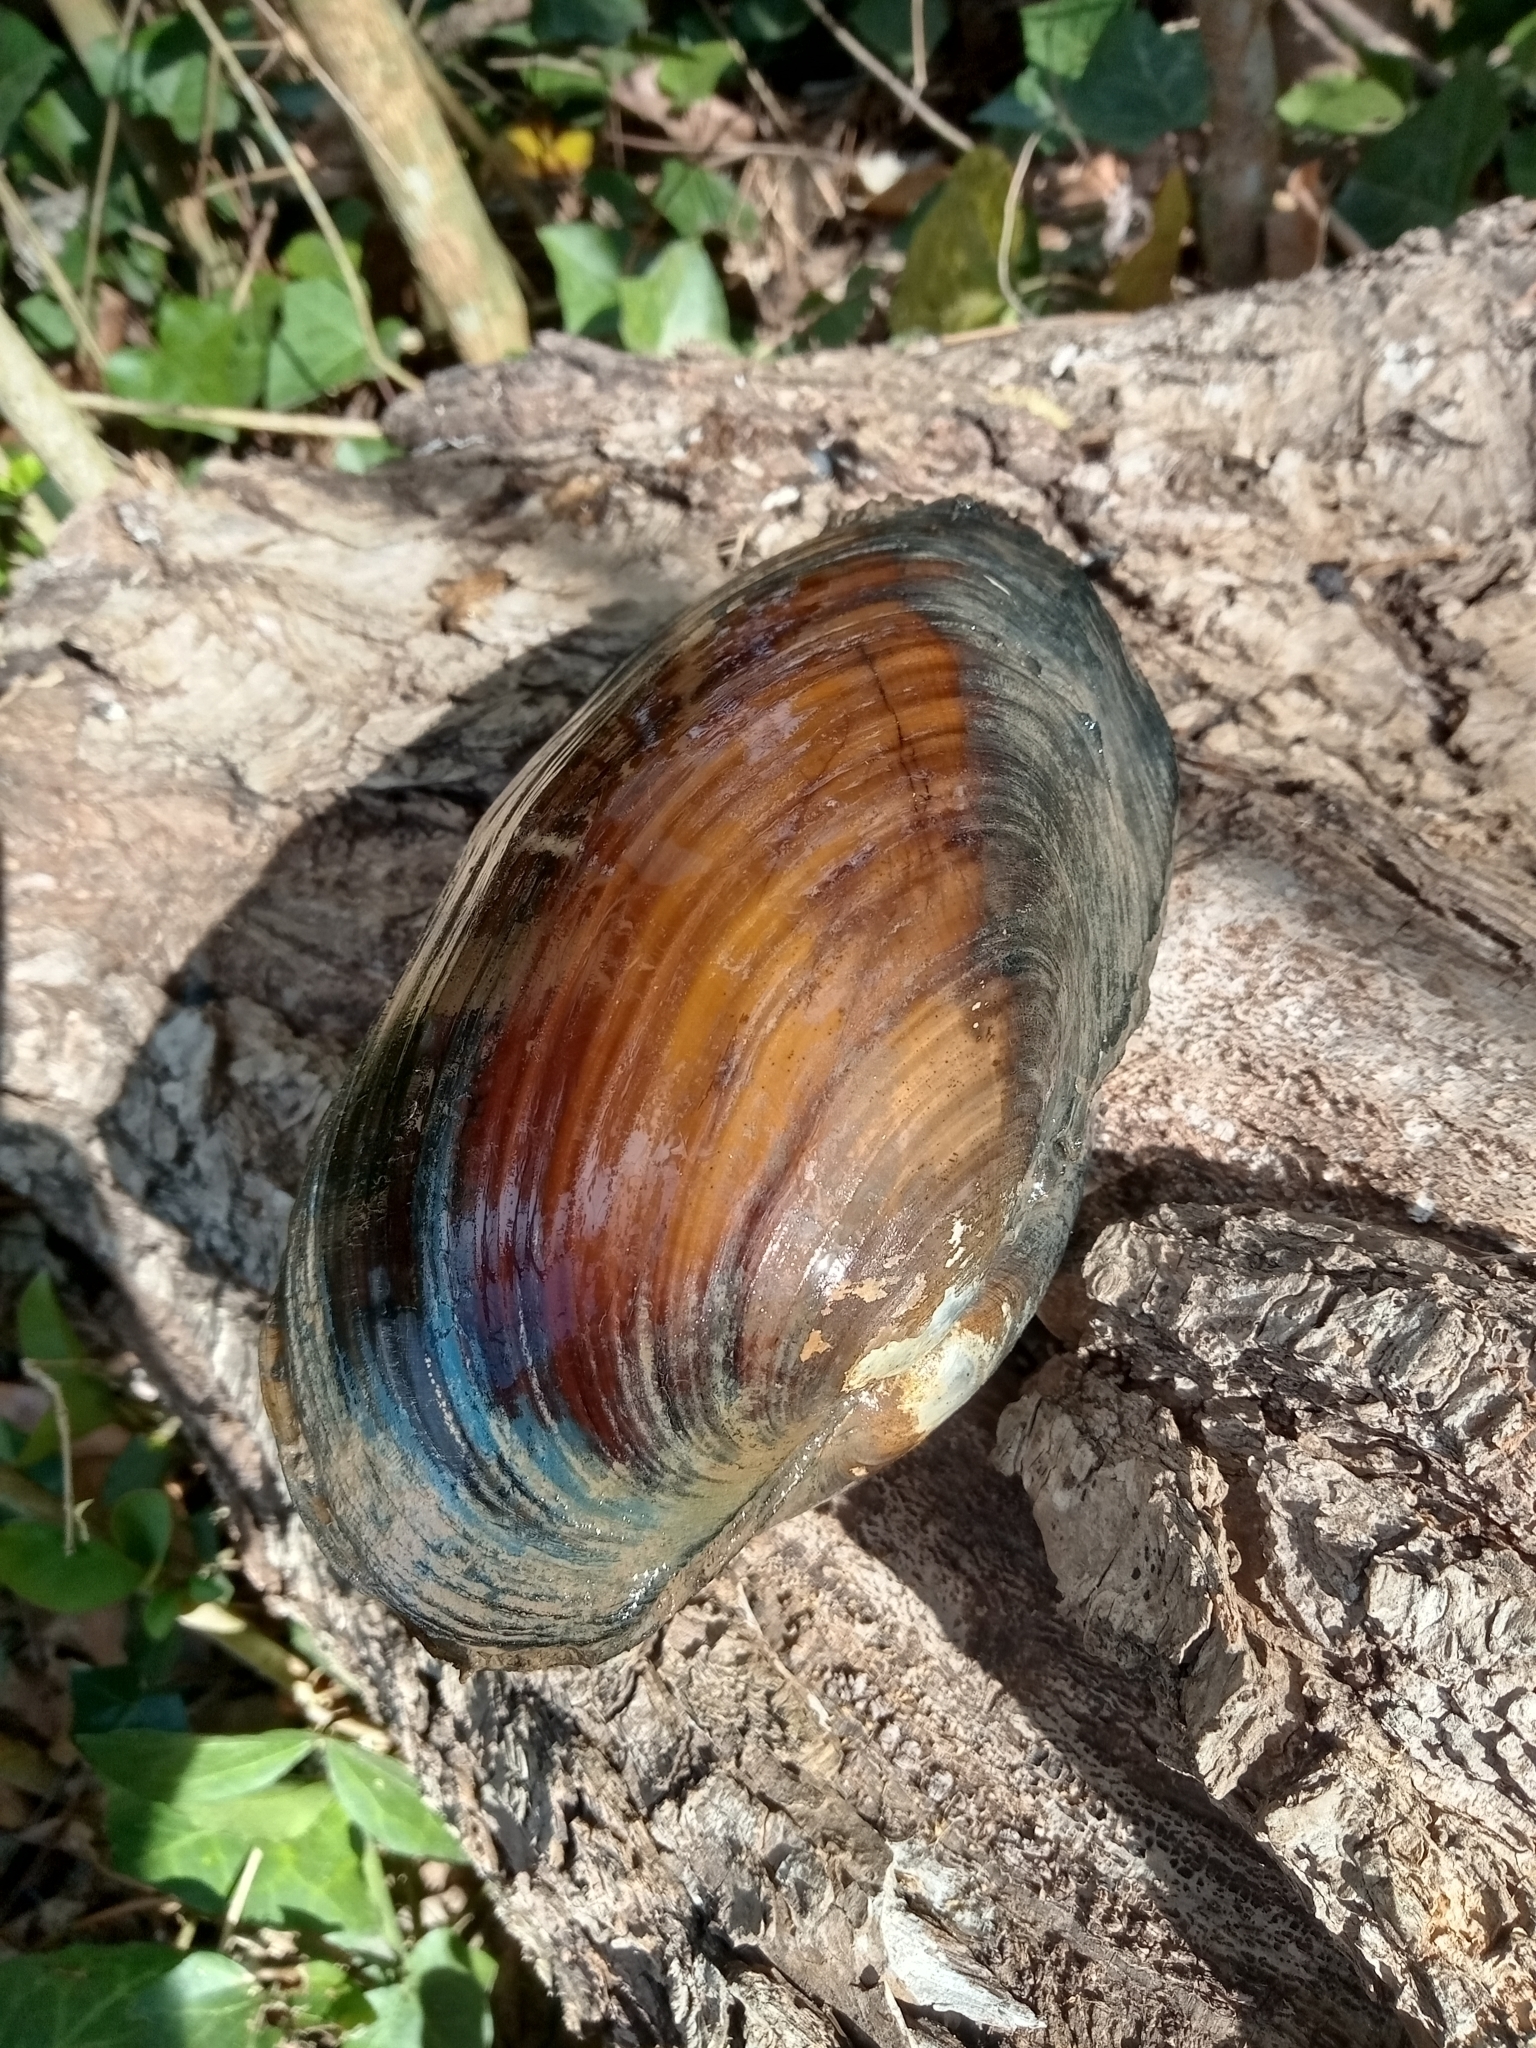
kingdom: Animalia
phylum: Mollusca
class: Bivalvia
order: Unionida
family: Mycetopodidae
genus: Anodontites
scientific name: Anodontites trapesialis
